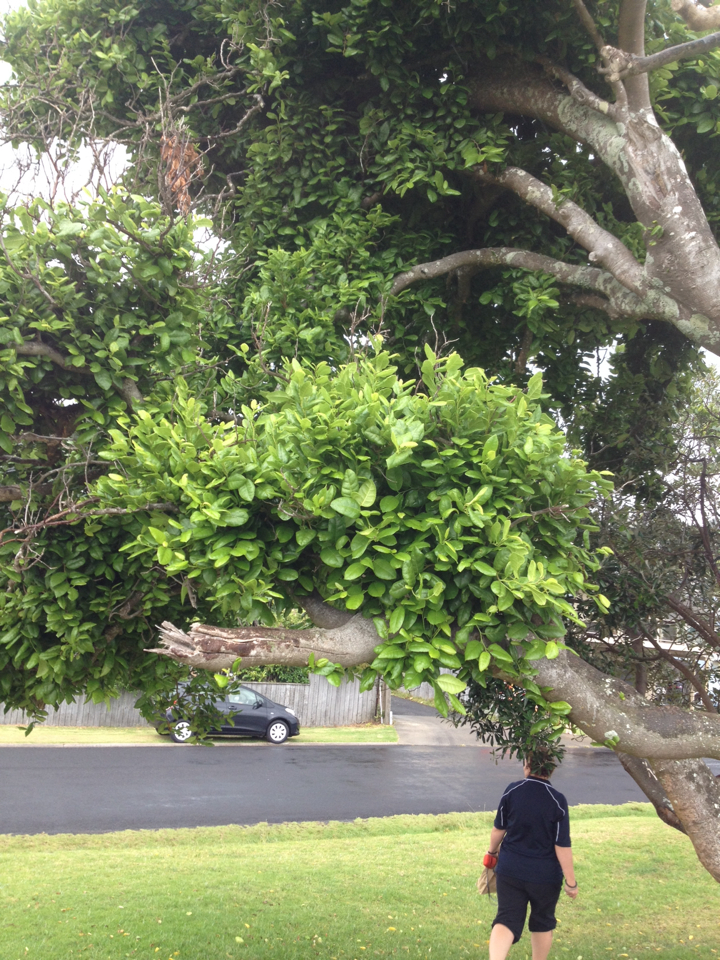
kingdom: Plantae
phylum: Tracheophyta
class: Magnoliopsida
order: Rosales
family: Moraceae
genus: Paratrophis
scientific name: Paratrophis banksii
